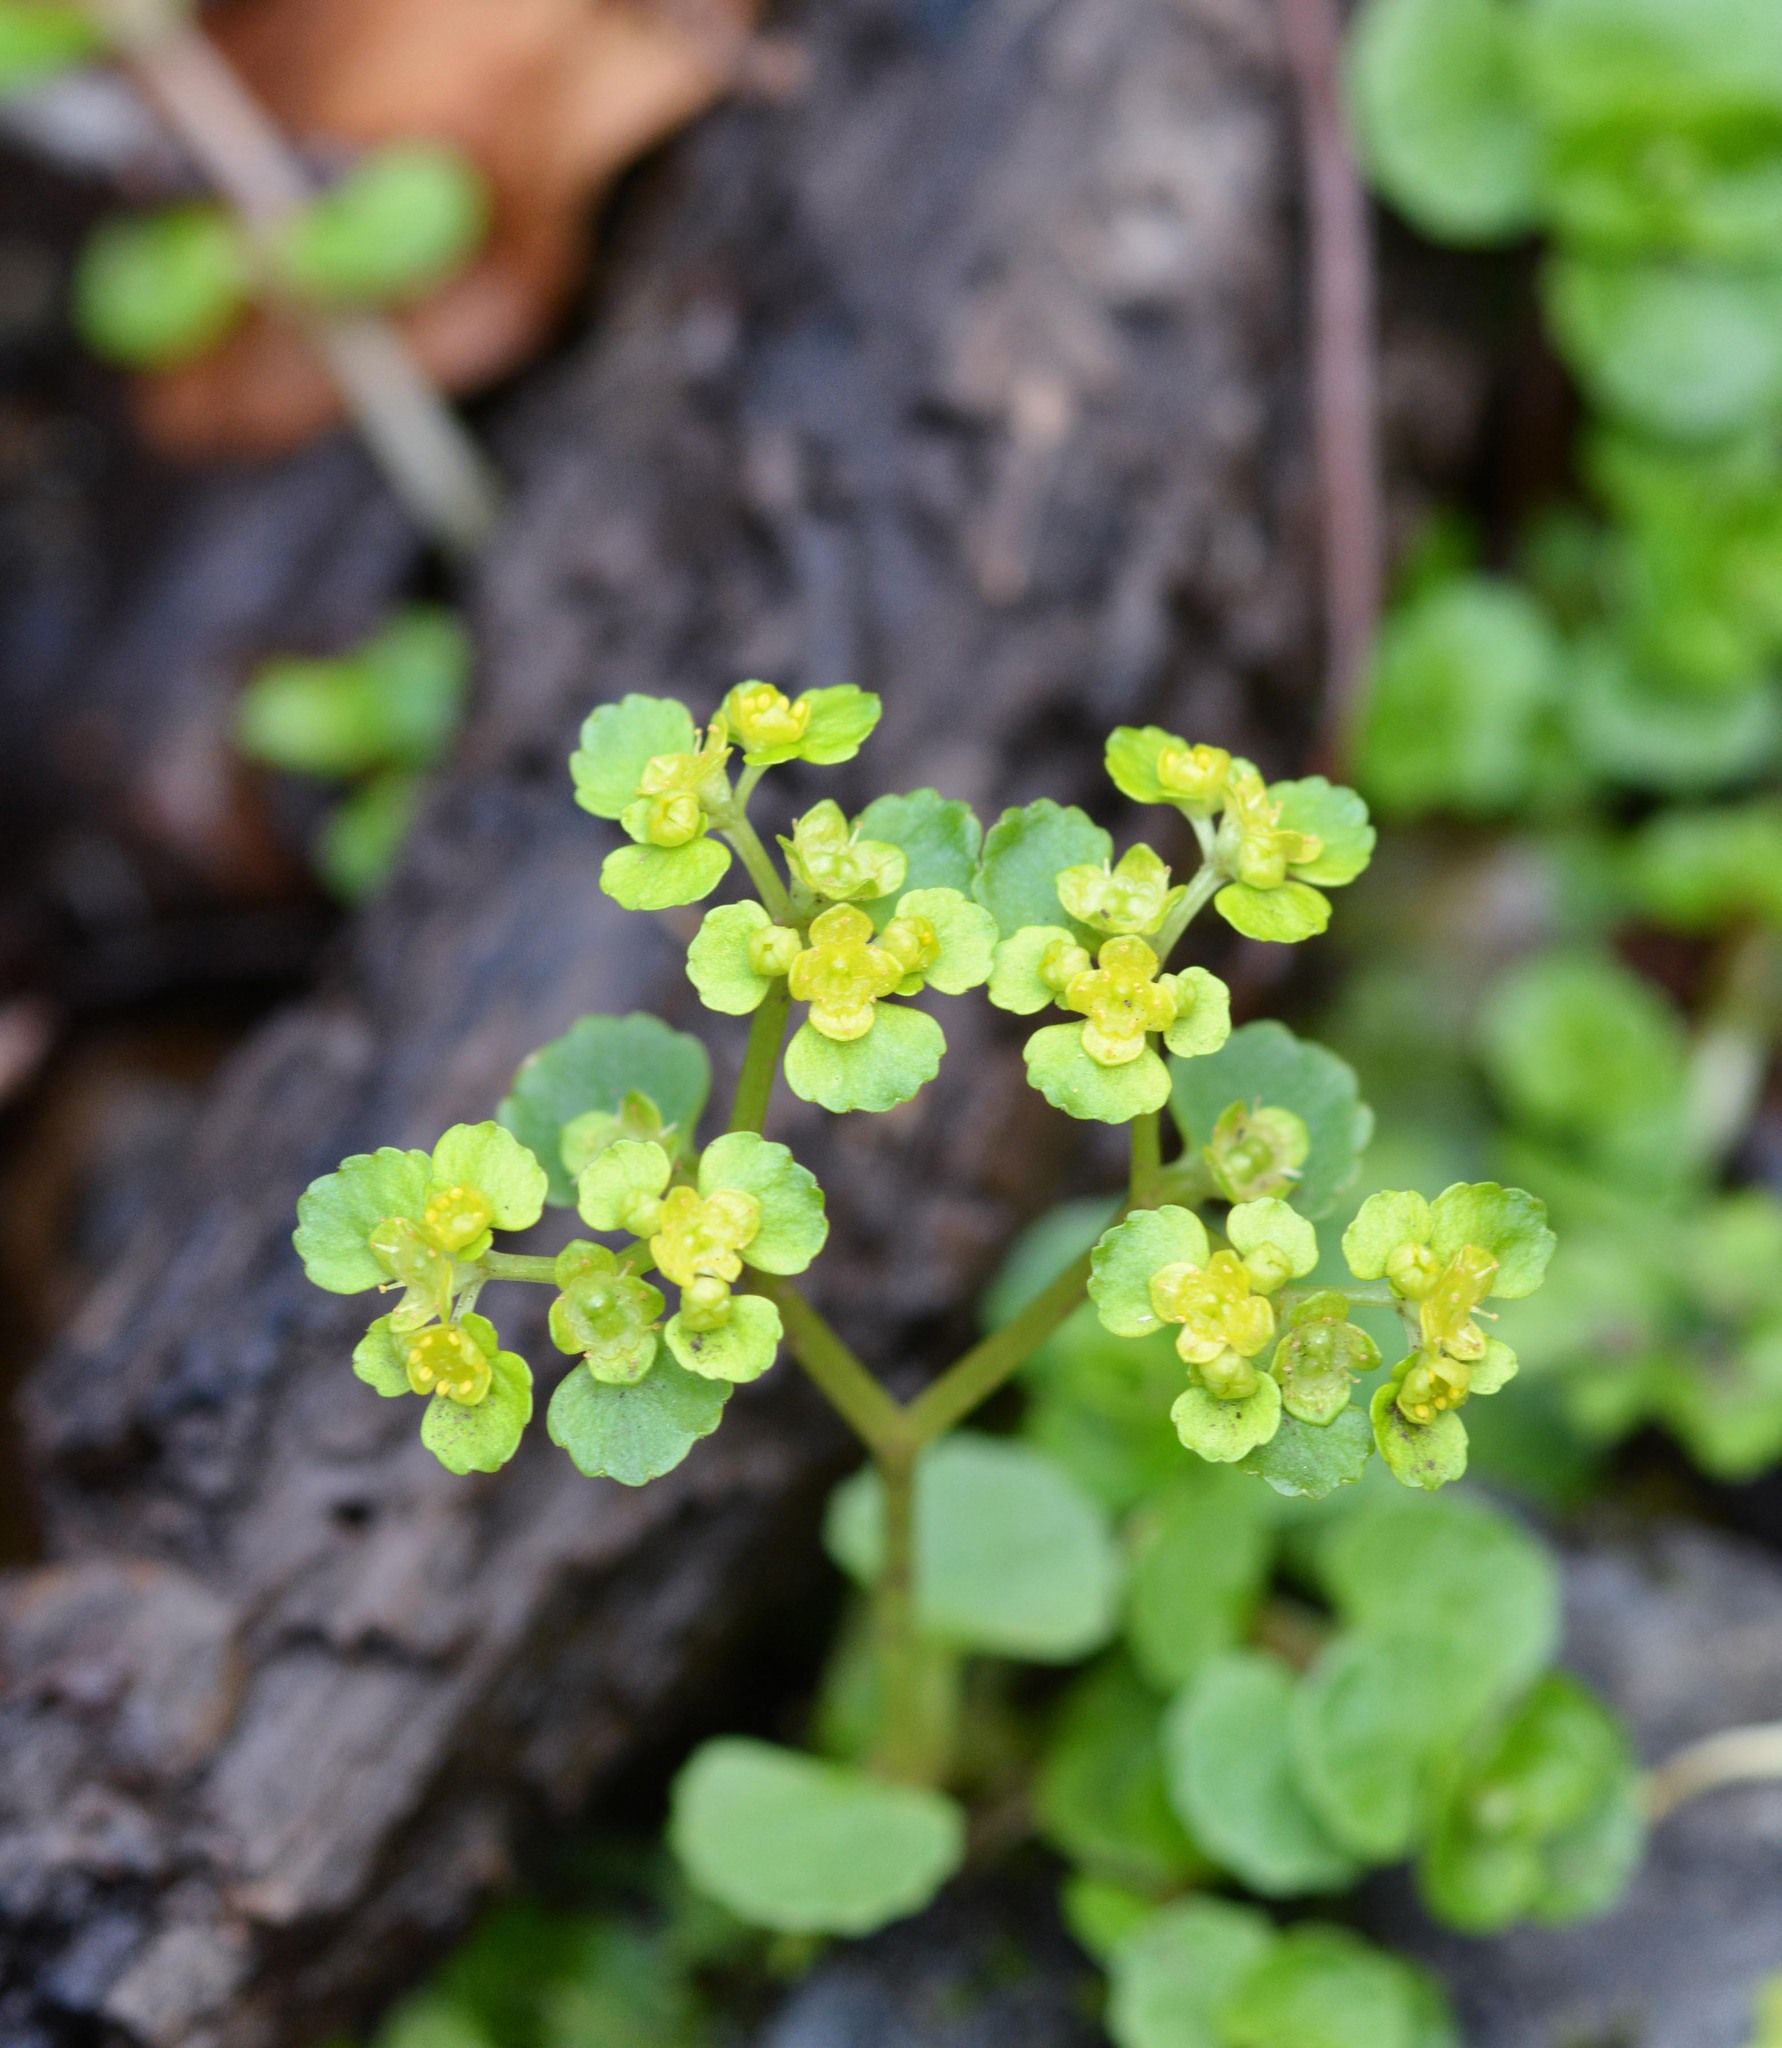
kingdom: Plantae
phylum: Tracheophyta
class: Magnoliopsida
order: Saxifragales
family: Saxifragaceae
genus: Chrysosplenium
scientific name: Chrysosplenium oppositifolium
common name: Opposite-leaved golden-saxifrage
